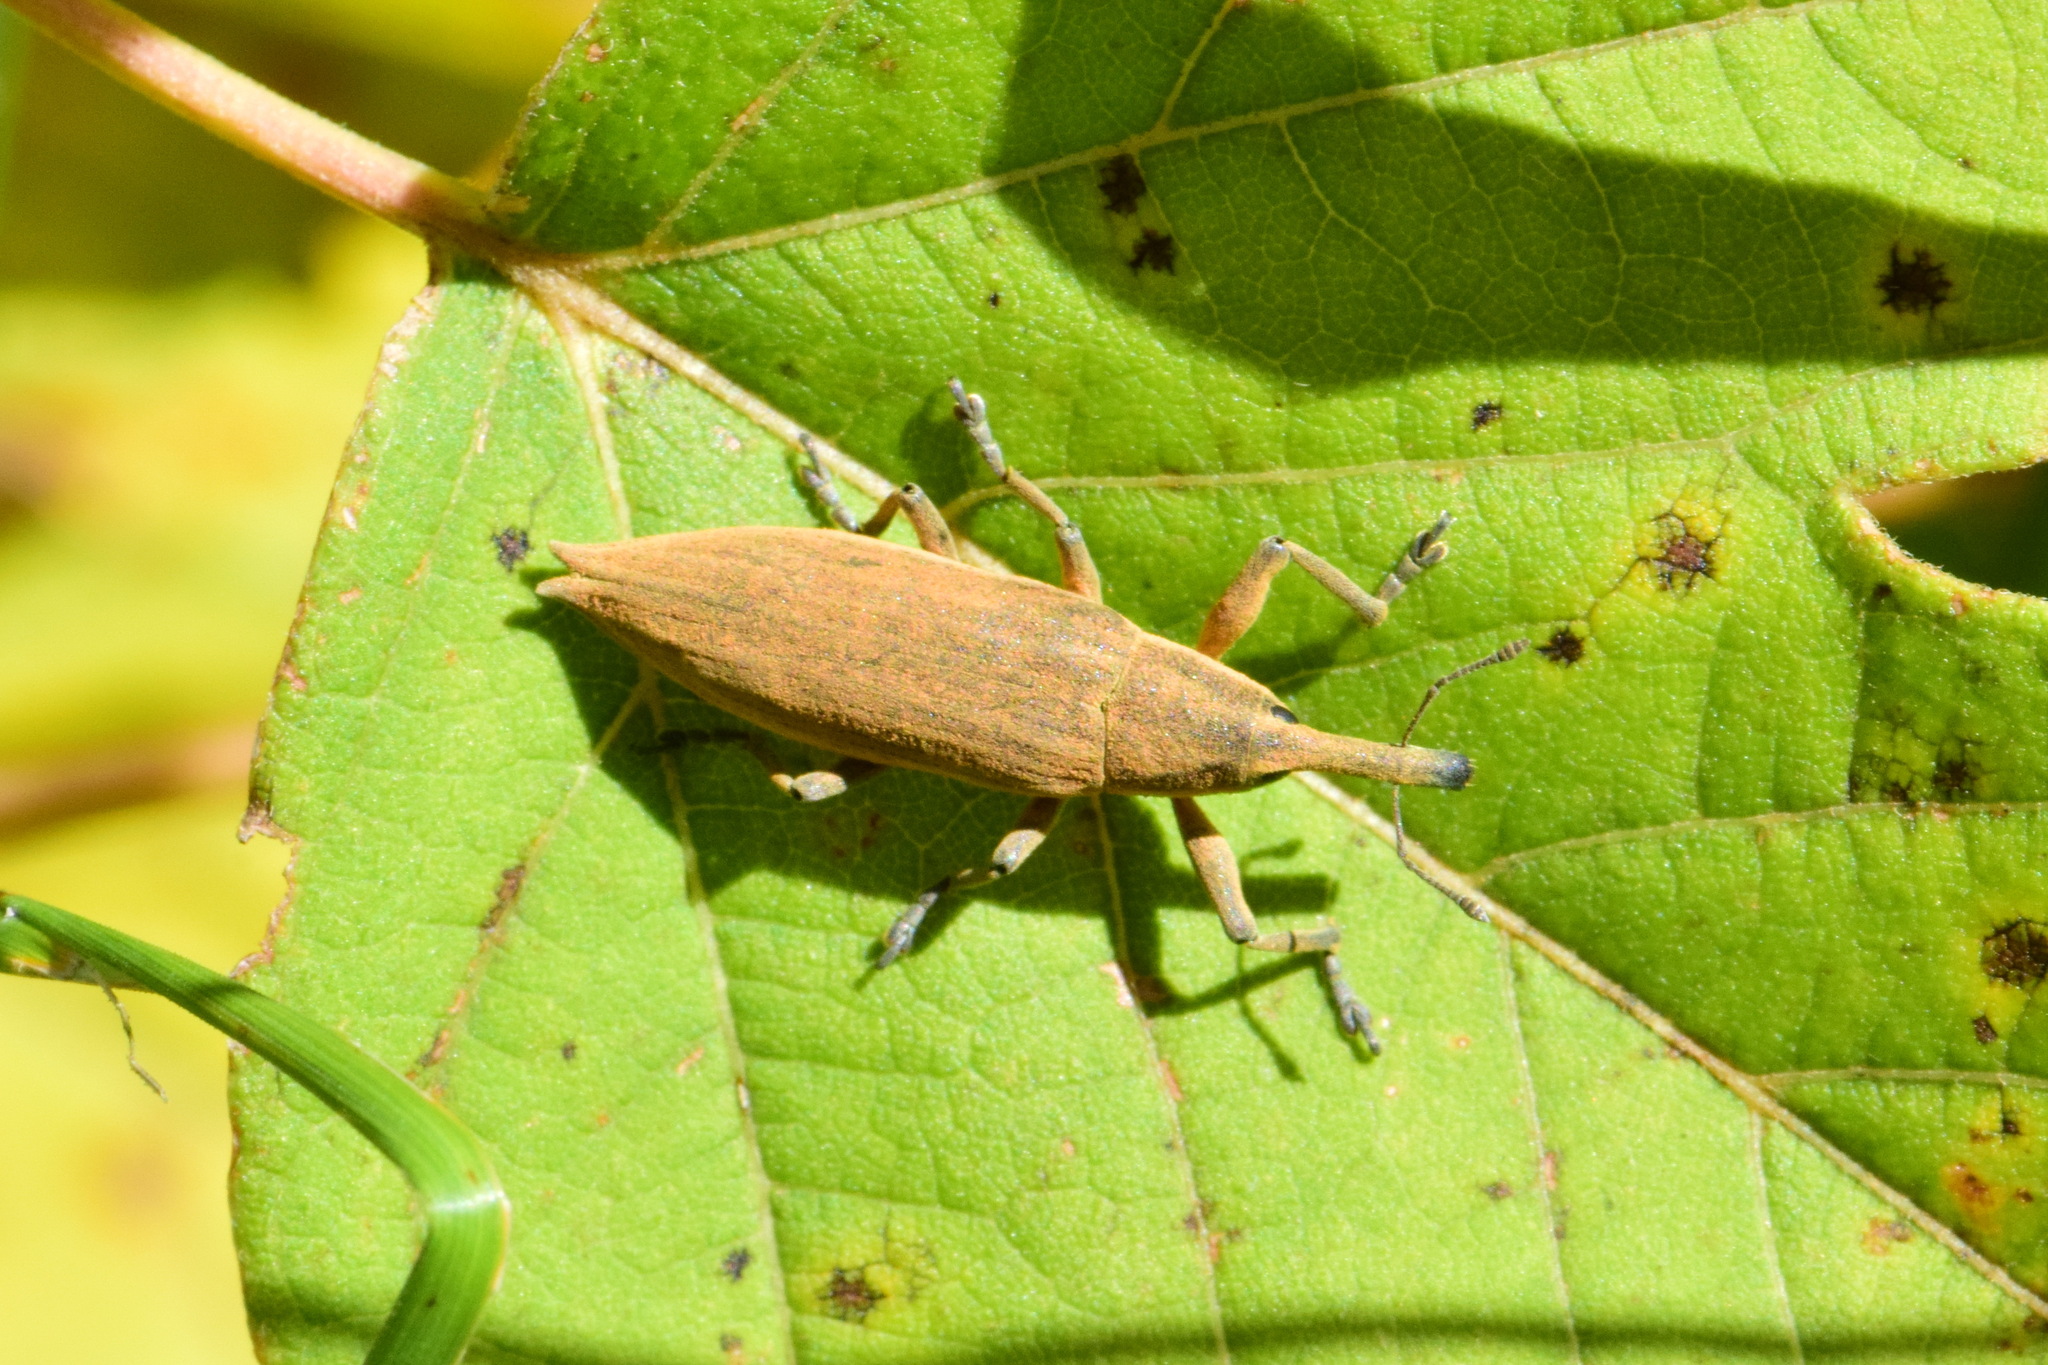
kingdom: Animalia
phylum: Arthropoda
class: Insecta
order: Coleoptera
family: Curculionidae
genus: Lixus
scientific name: Lixus iridis
